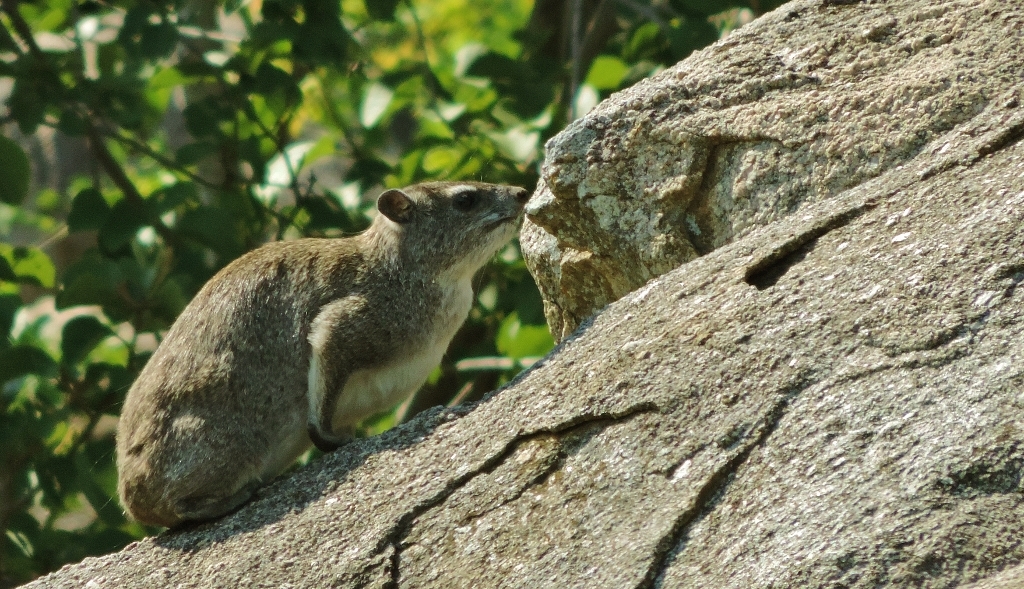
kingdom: Animalia
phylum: Chordata
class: Mammalia
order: Hyracoidea
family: Procaviidae
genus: Heterohyrax
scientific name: Heterohyrax brucei
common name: Bush hyrax
